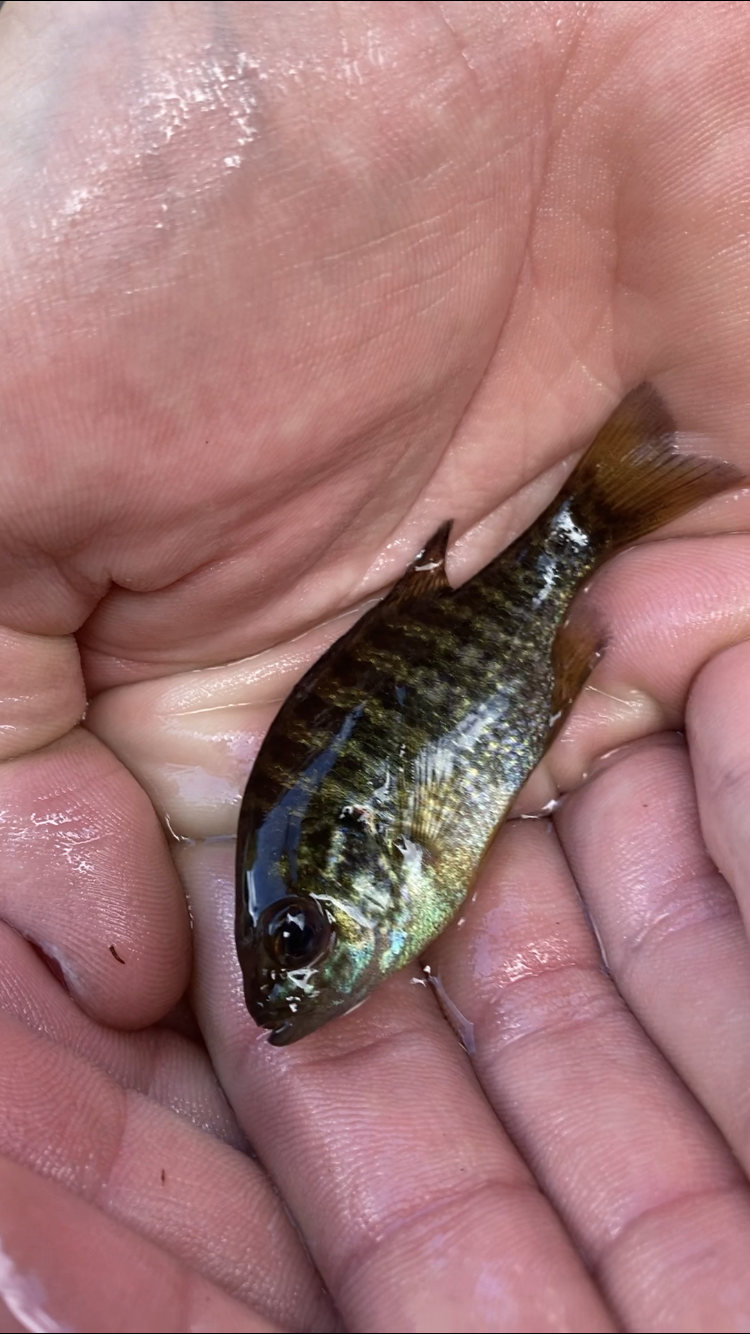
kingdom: Animalia
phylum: Chordata
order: Perciformes
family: Centrarchidae
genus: Lepomis
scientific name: Lepomis gibbosus
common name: Pumpkinseed
